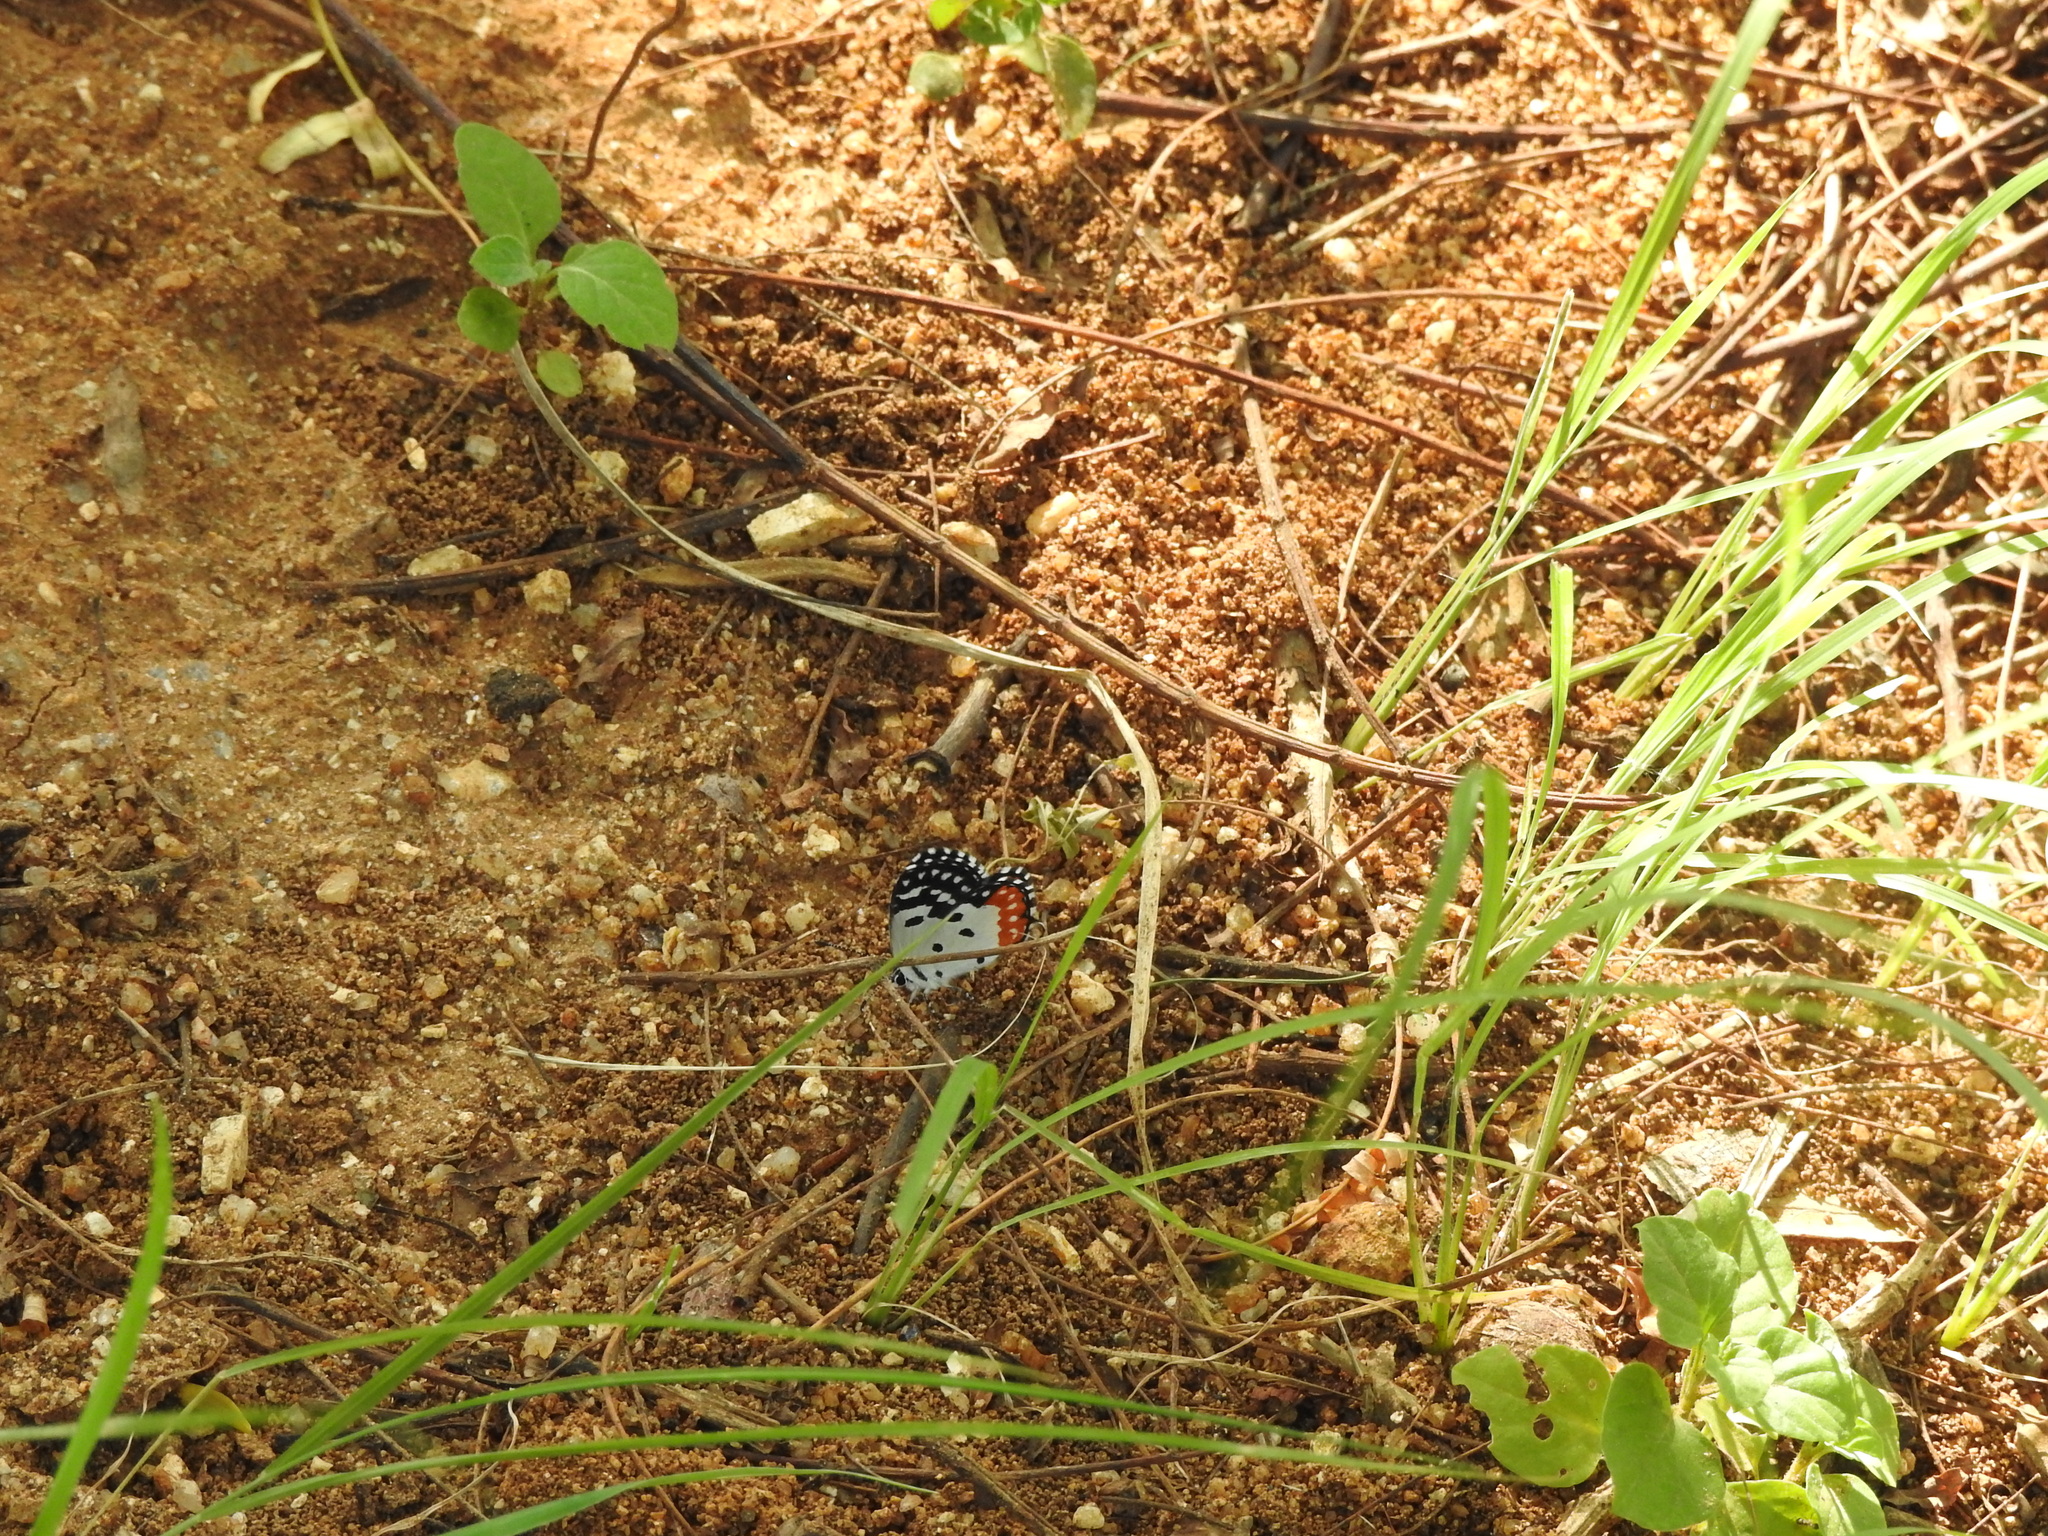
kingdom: Animalia
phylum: Arthropoda
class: Insecta
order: Lepidoptera
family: Lycaenidae
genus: Talicada
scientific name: Talicada nyseus
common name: Red pierrot
